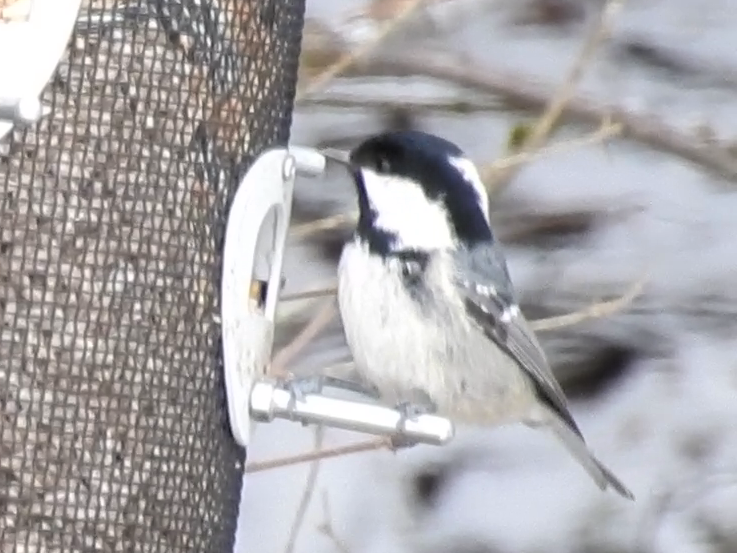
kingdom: Animalia
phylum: Chordata
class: Aves
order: Passeriformes
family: Paridae
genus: Periparus
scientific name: Periparus ater
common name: Coal tit
